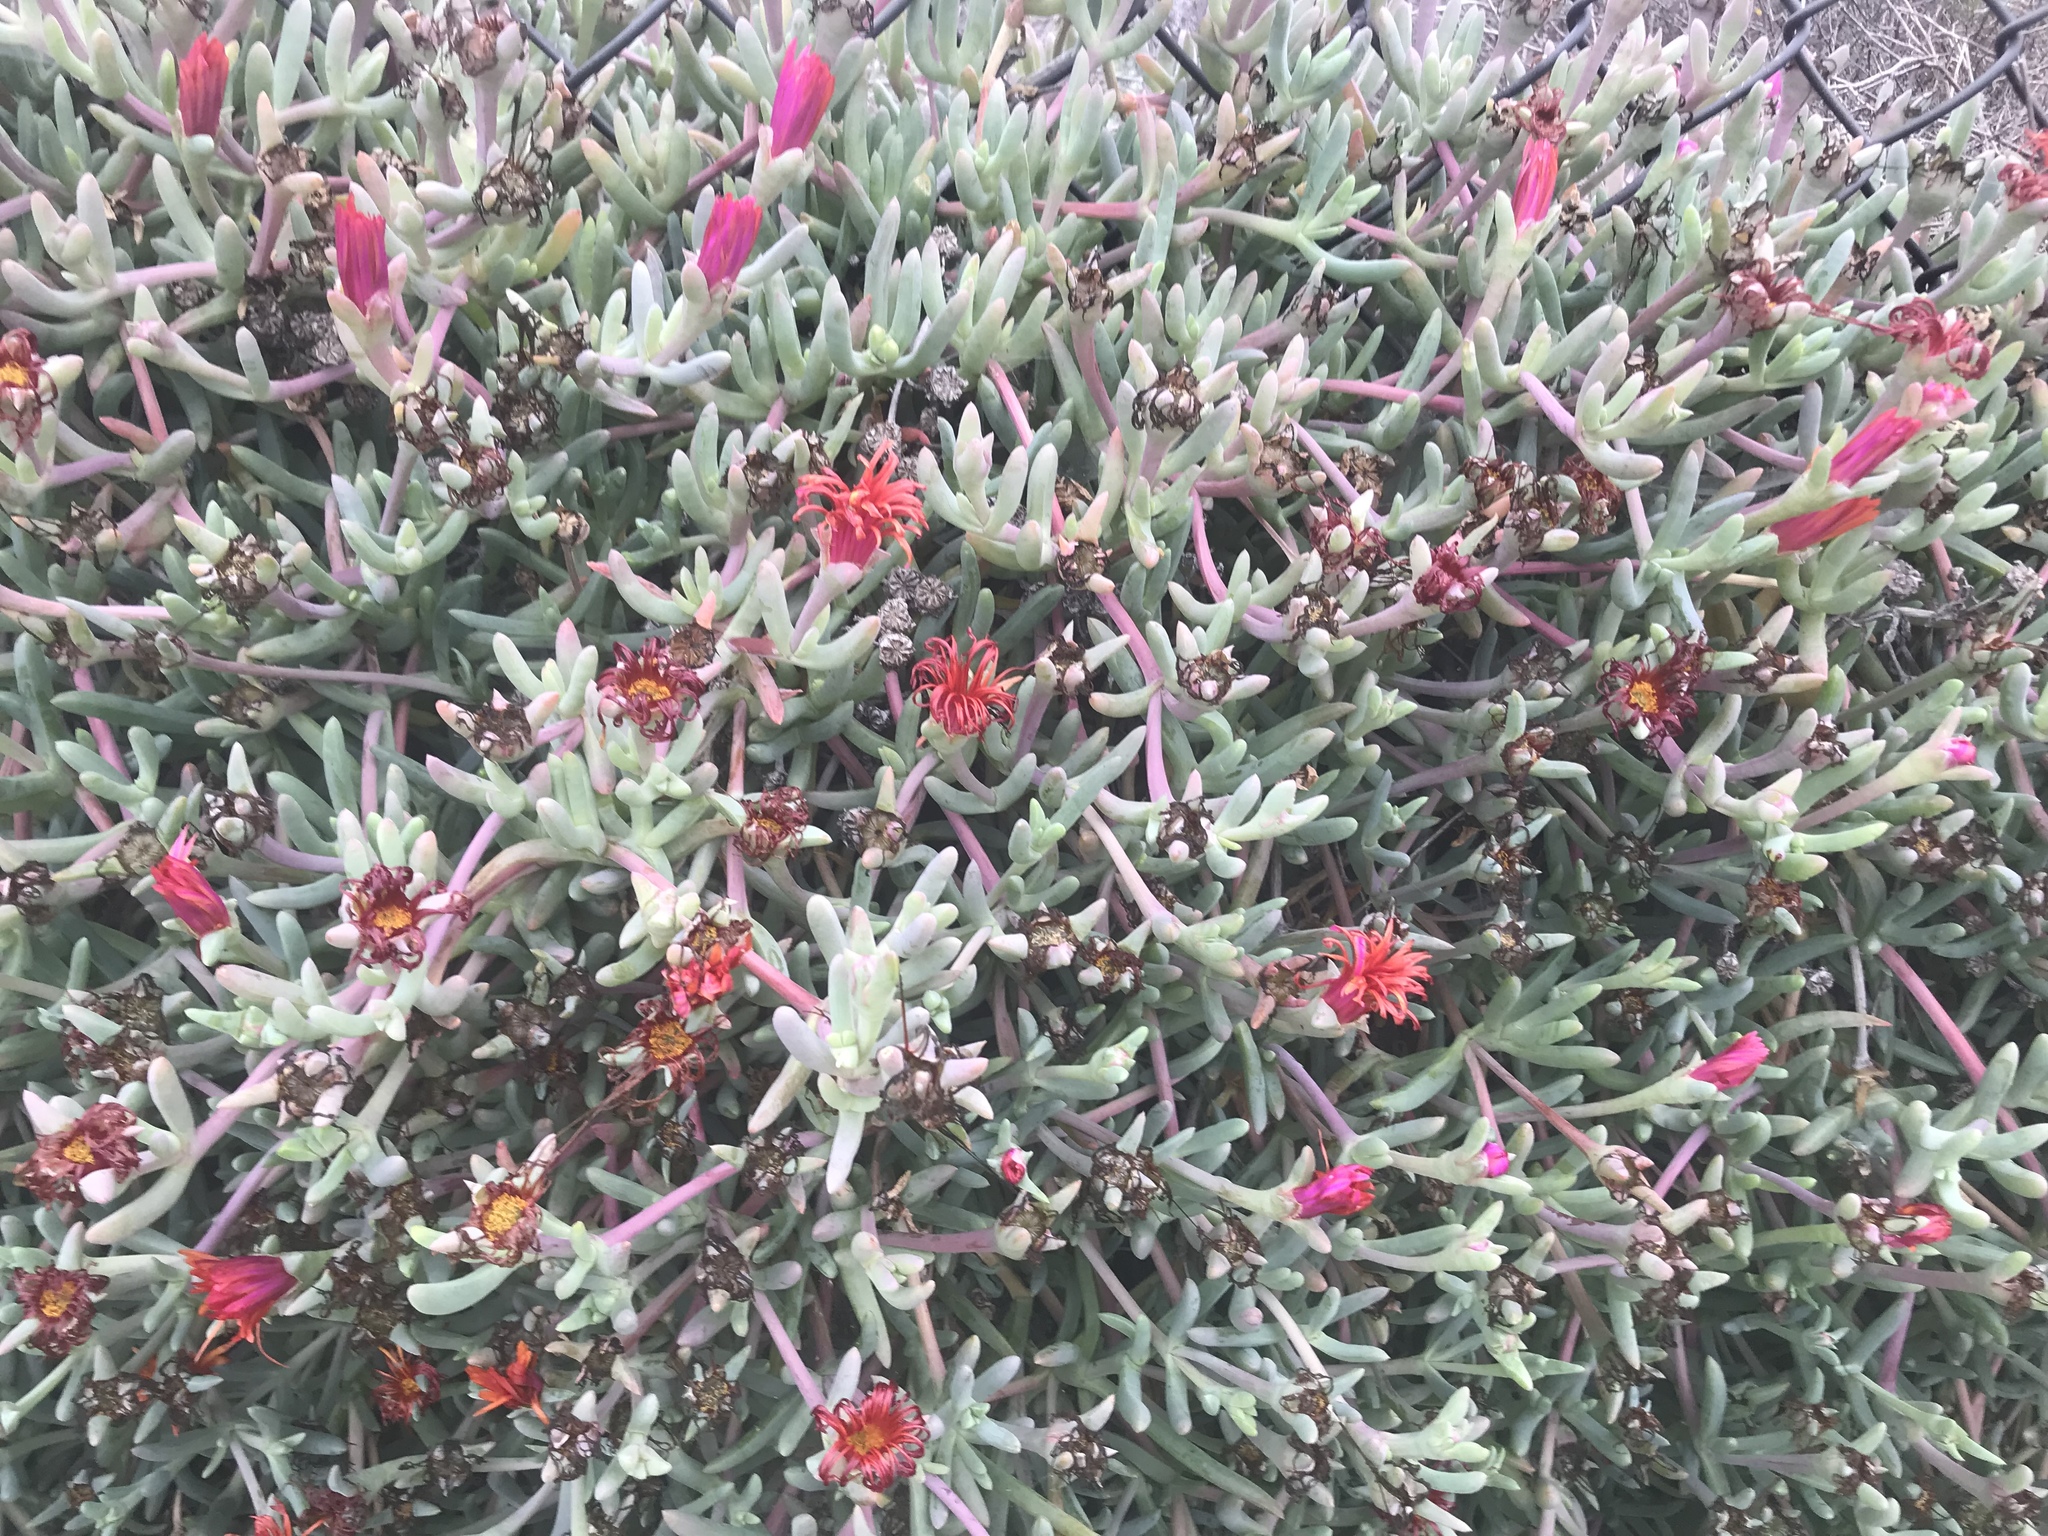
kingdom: Plantae
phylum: Tracheophyta
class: Magnoliopsida
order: Caryophyllales
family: Aizoaceae
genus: Malephora
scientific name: Malephora crocea
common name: Coppery mesemb
